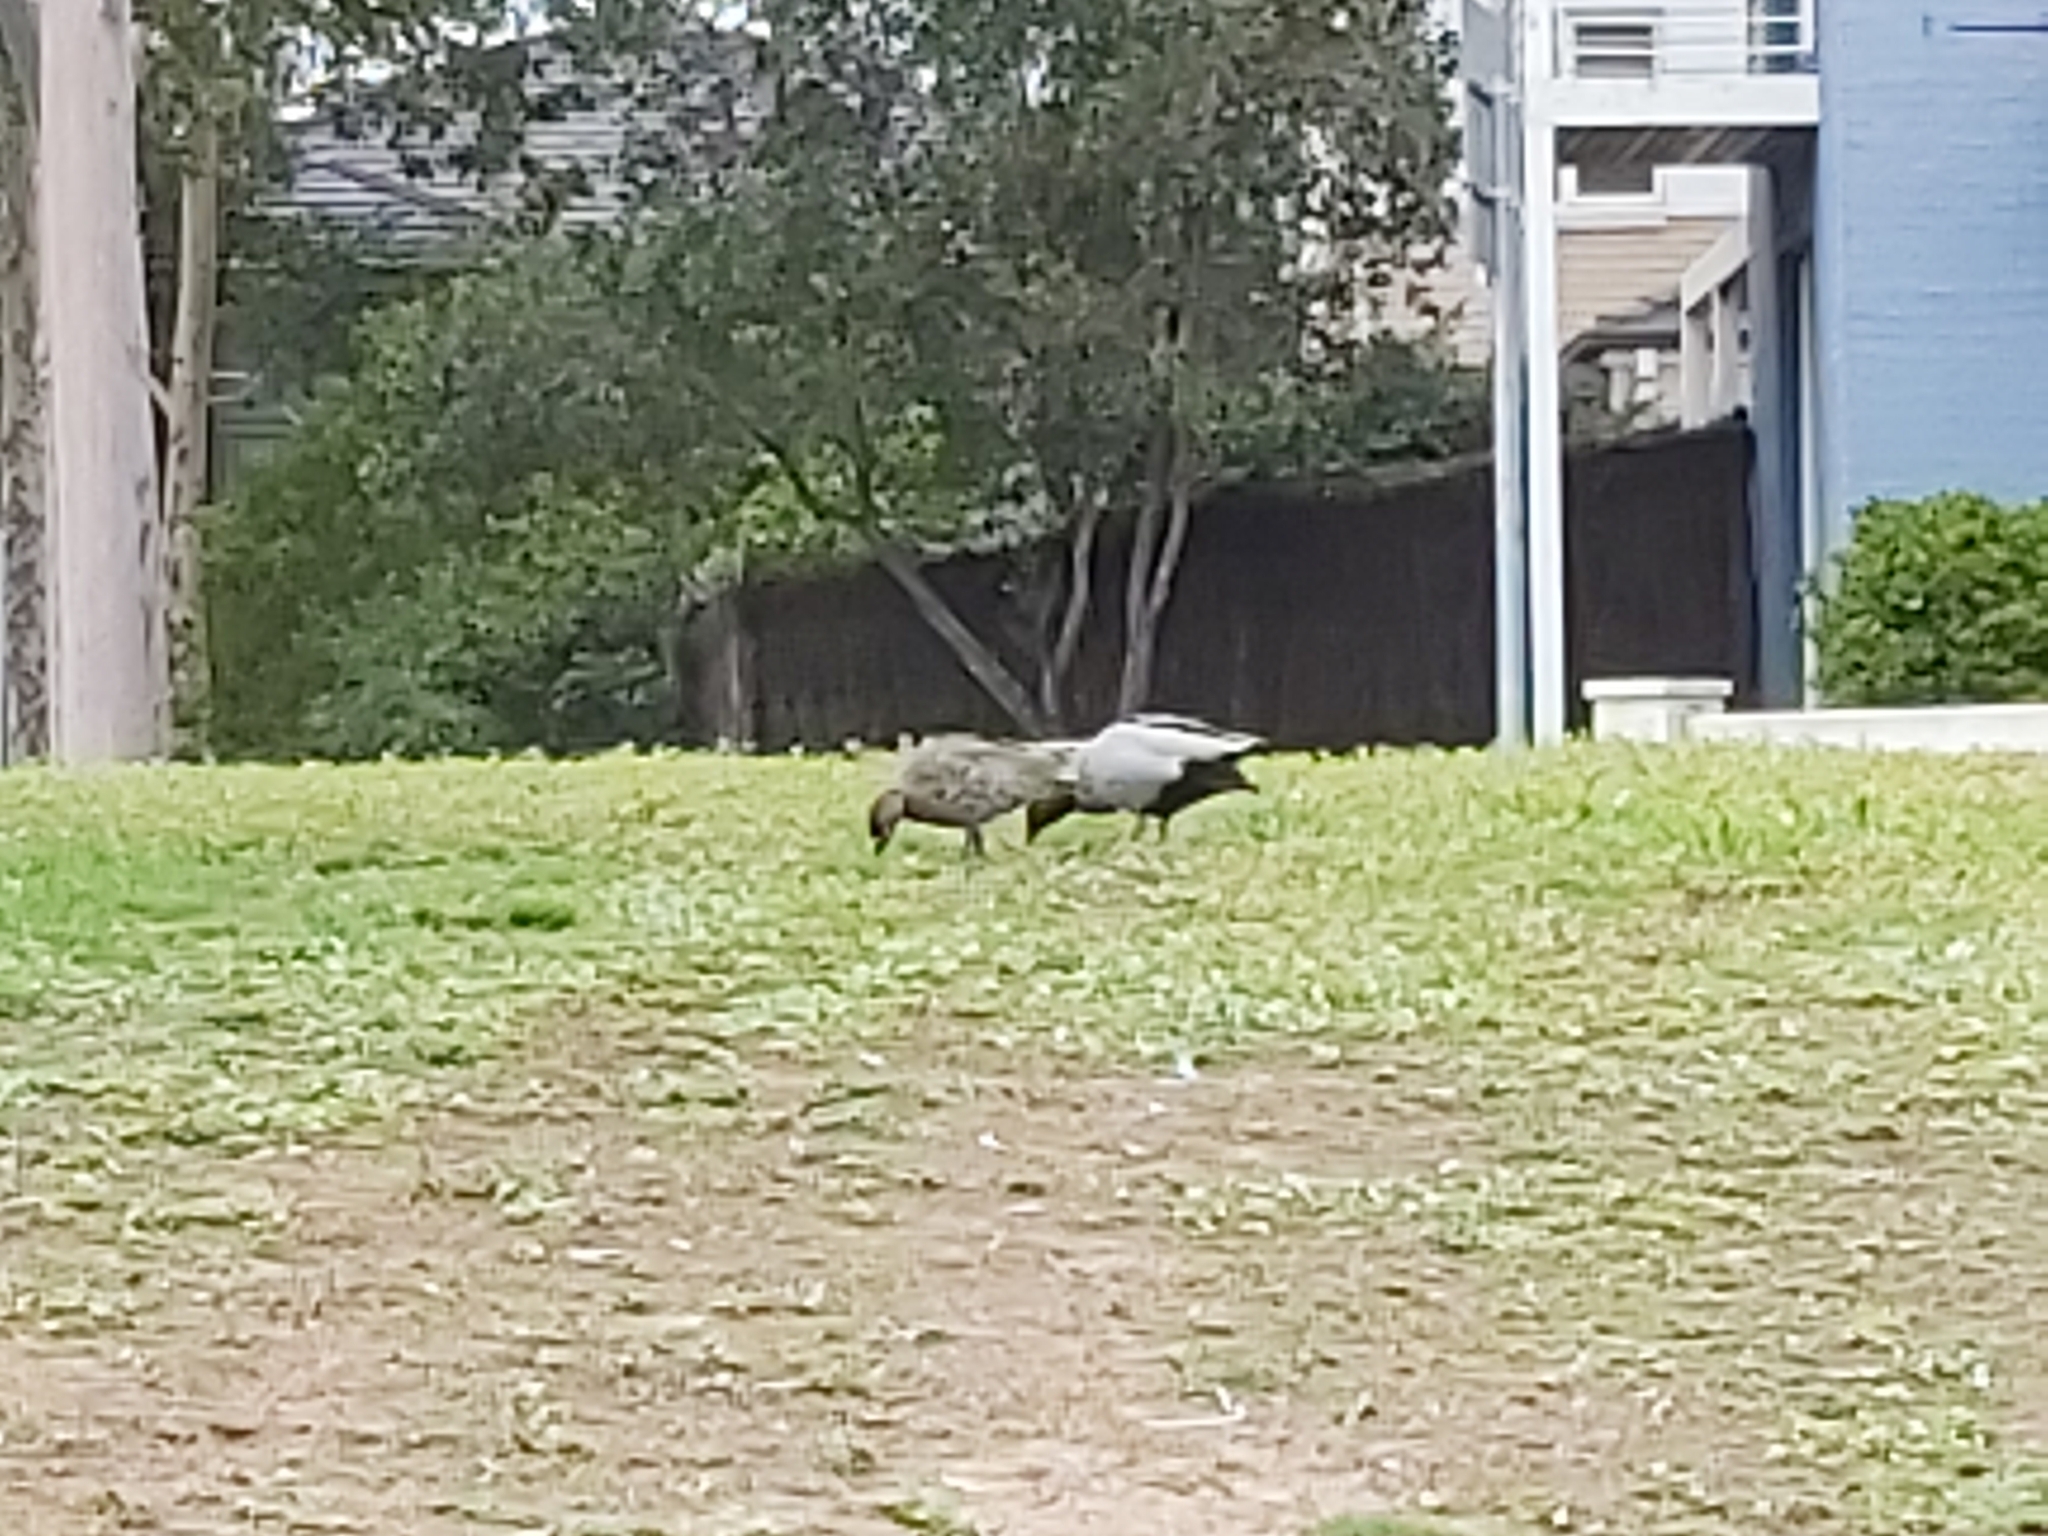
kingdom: Animalia
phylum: Chordata
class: Aves
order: Anseriformes
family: Anatidae
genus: Chenonetta
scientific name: Chenonetta jubata
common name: Maned duck
